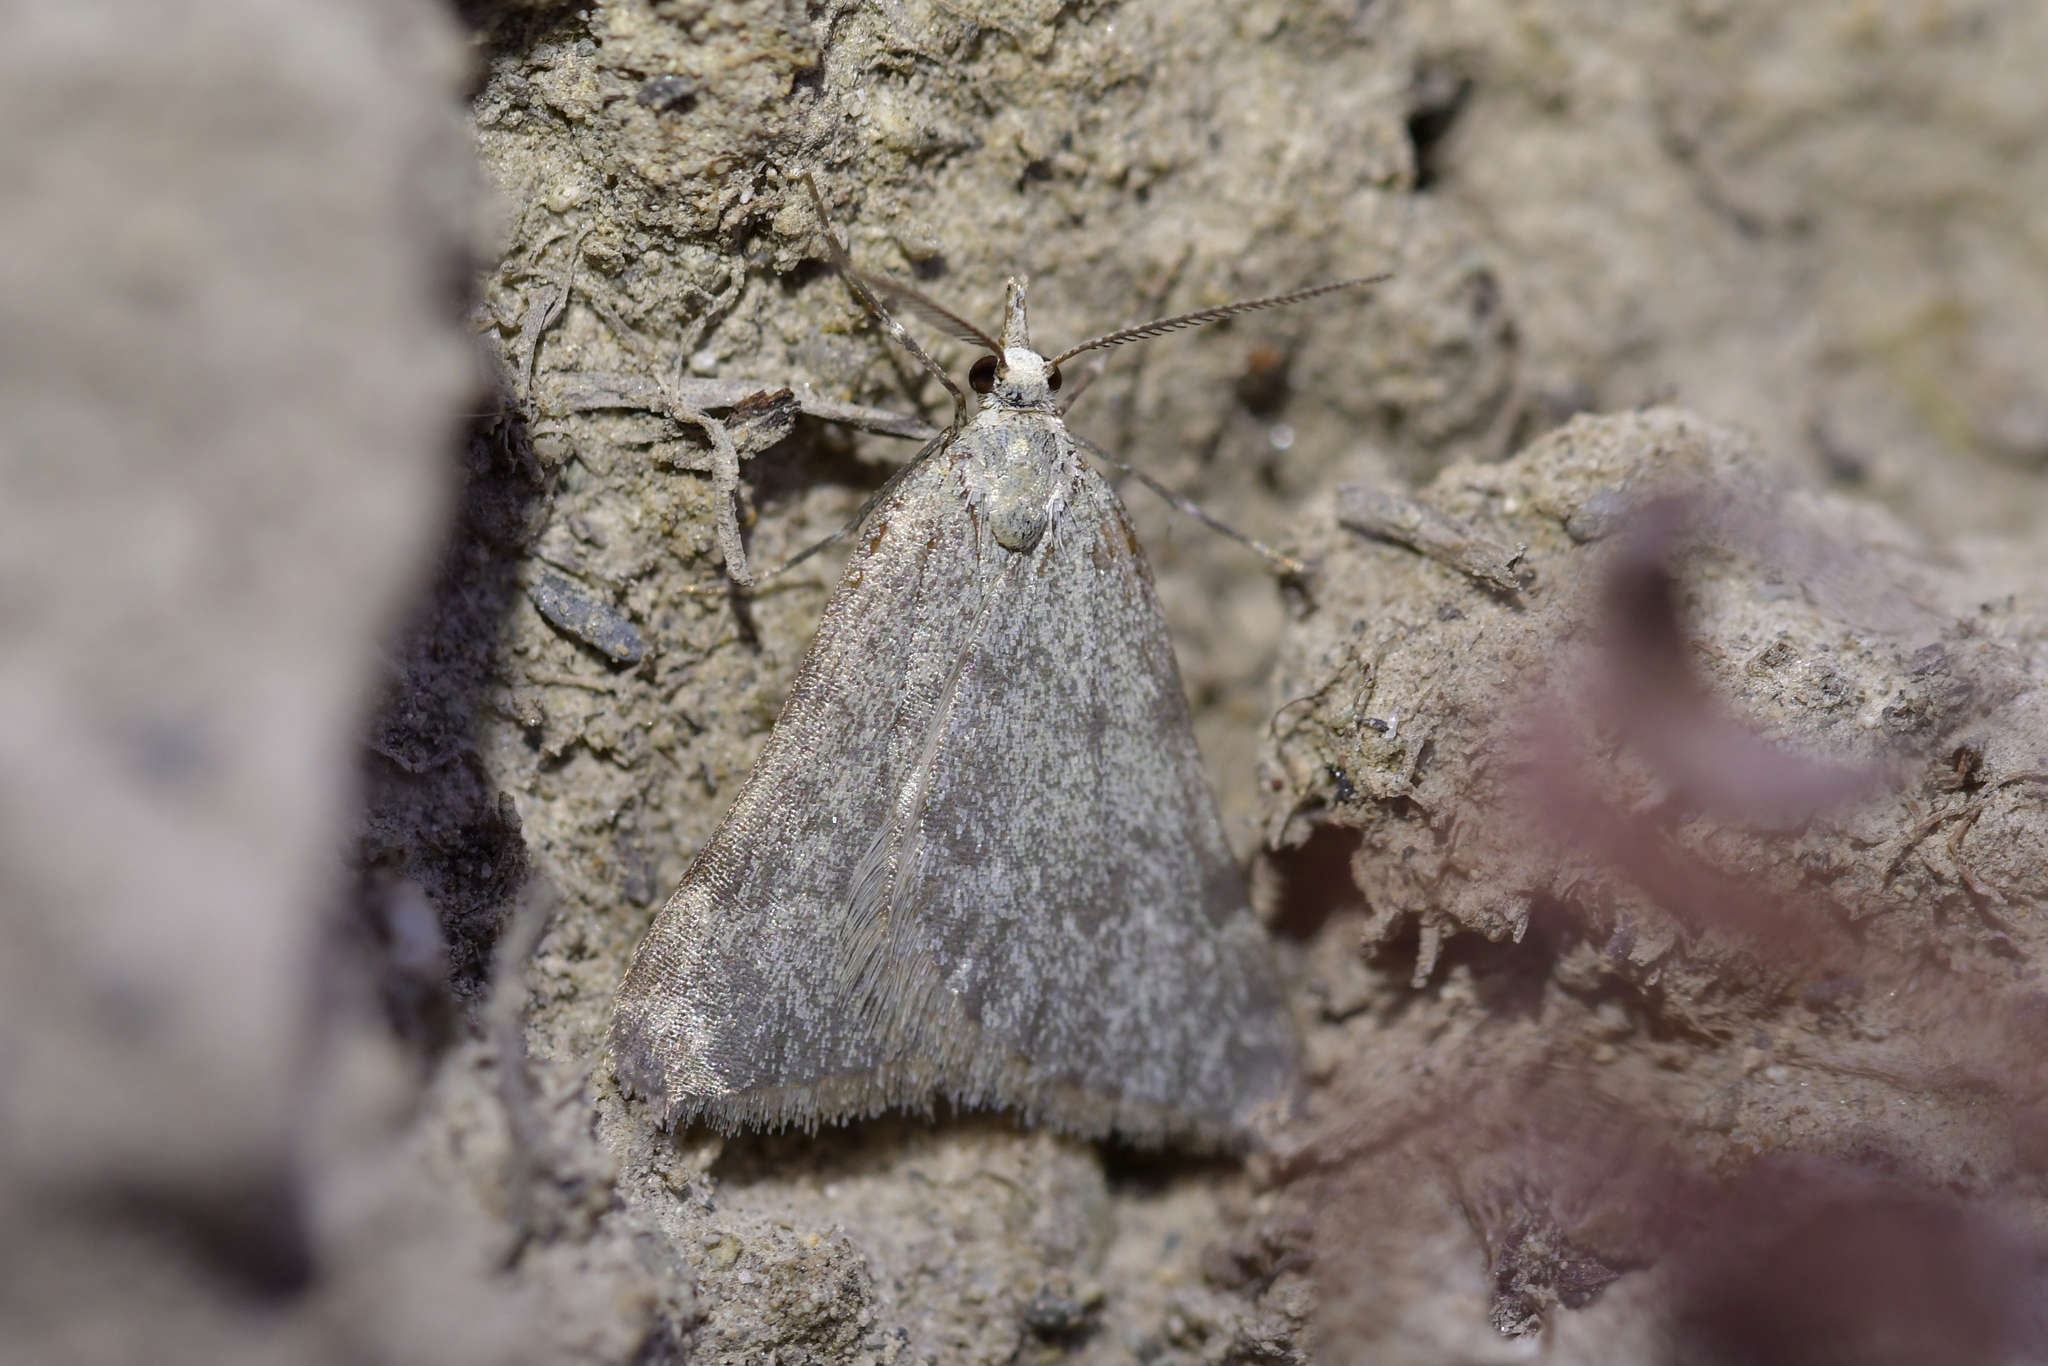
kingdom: Animalia
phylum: Arthropoda
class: Insecta
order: Lepidoptera
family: Geometridae
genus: Dichromodes
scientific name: Dichromodes sphaeriata
